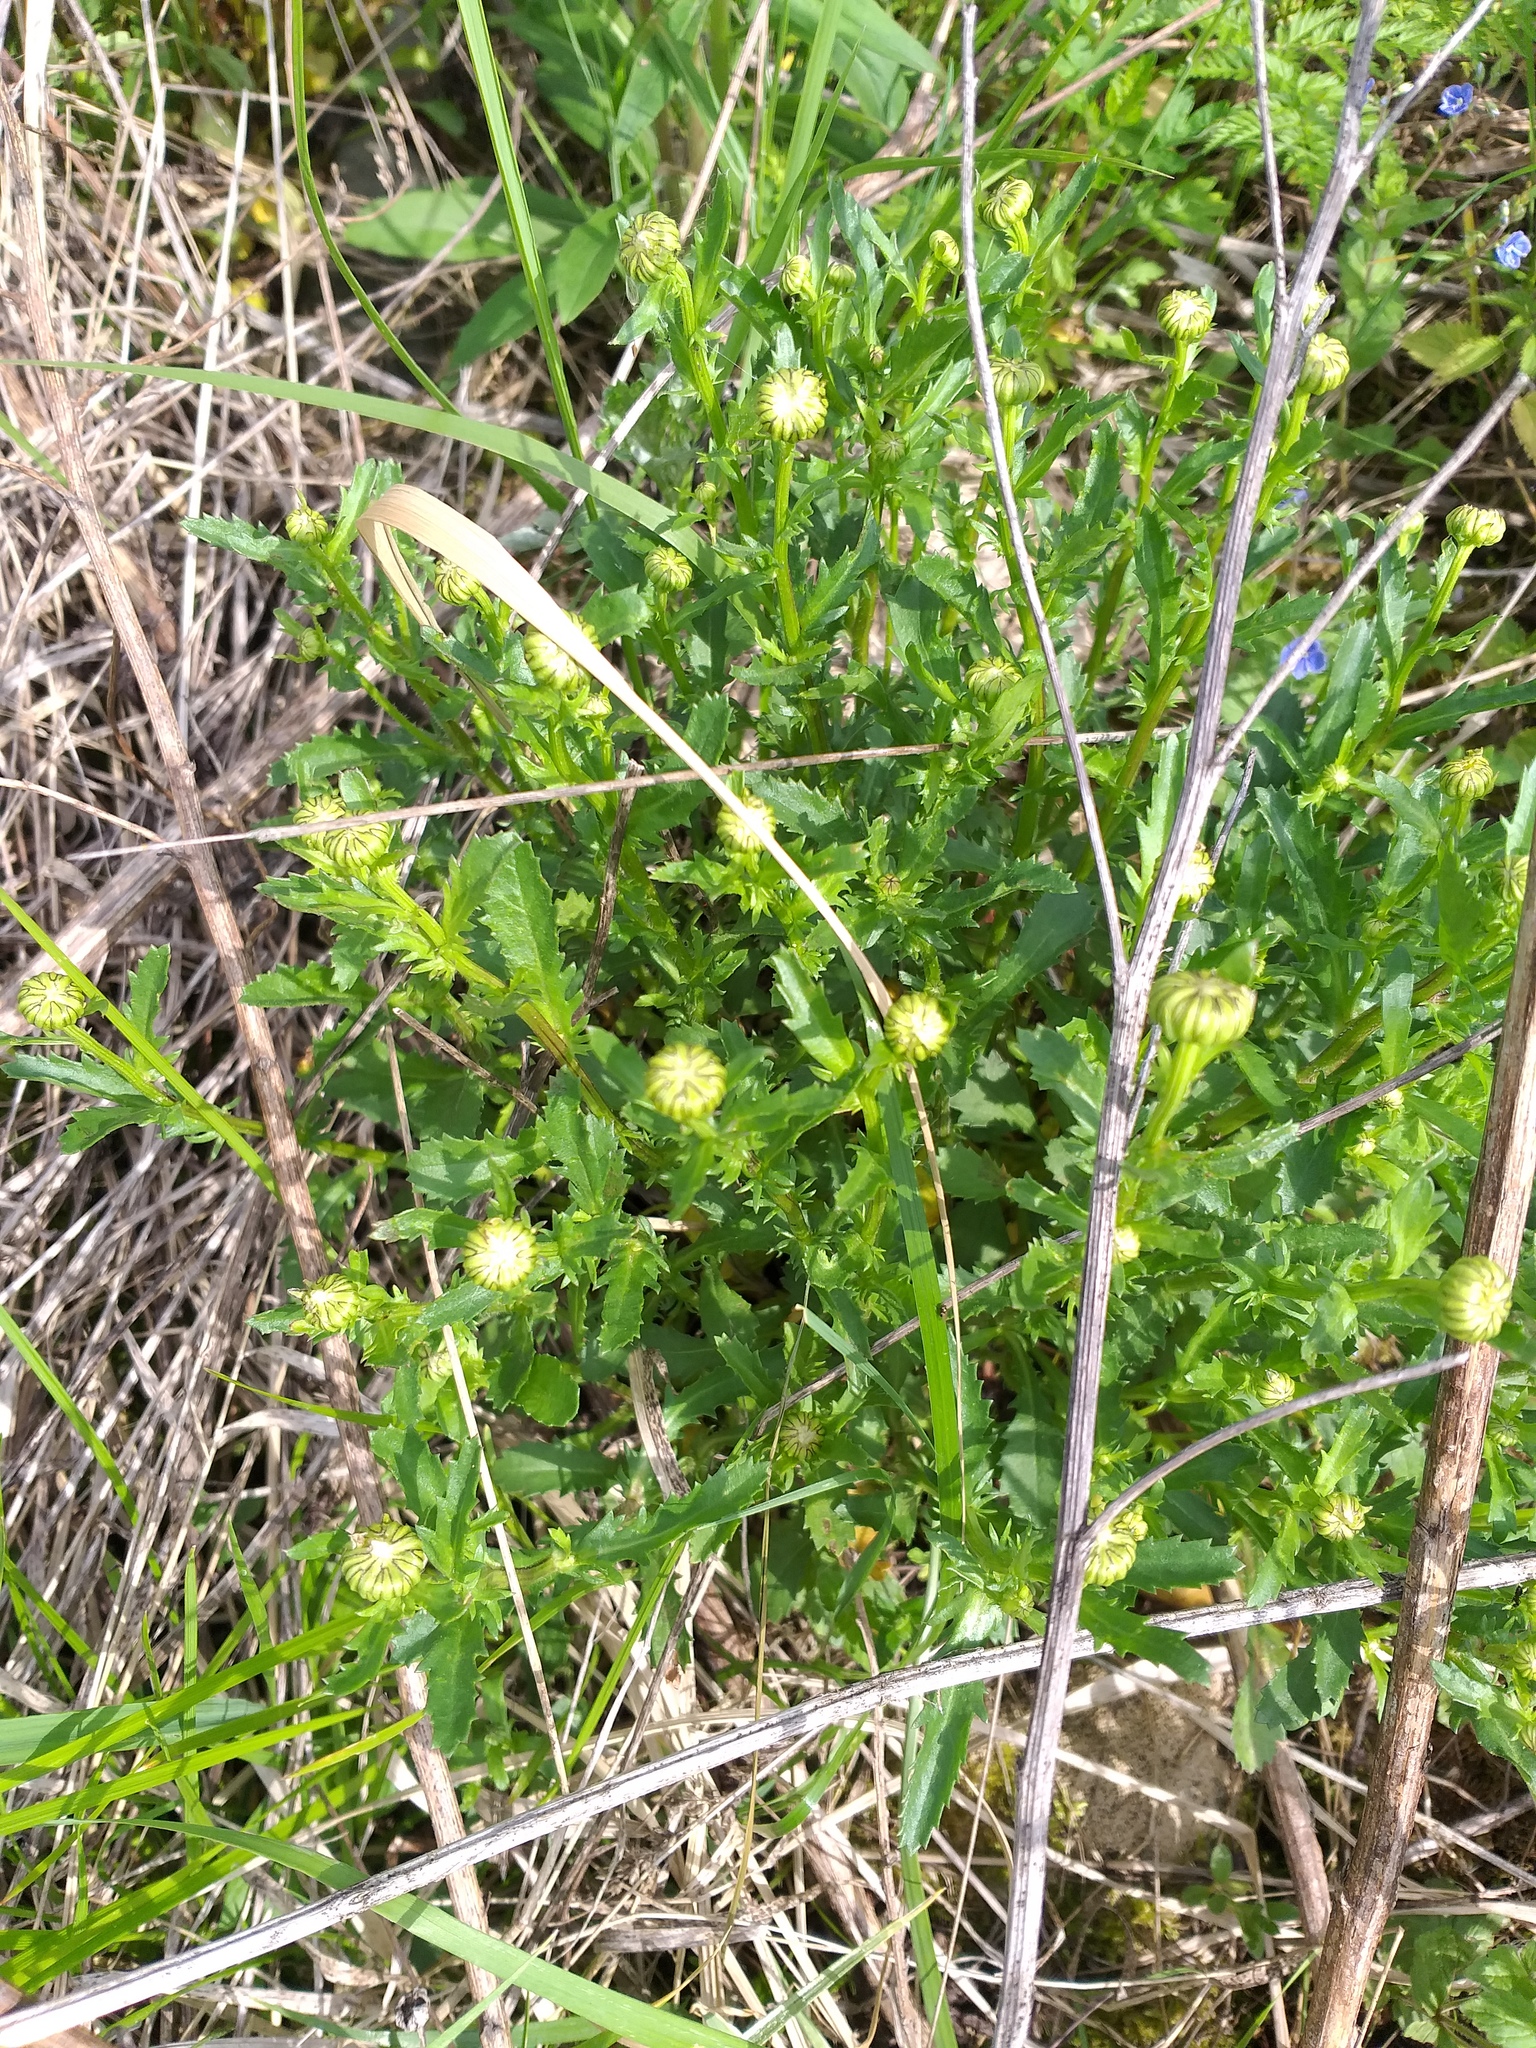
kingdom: Plantae
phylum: Tracheophyta
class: Magnoliopsida
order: Asterales
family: Asteraceae
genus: Leucanthemum
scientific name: Leucanthemum vulgare
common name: Oxeye daisy
